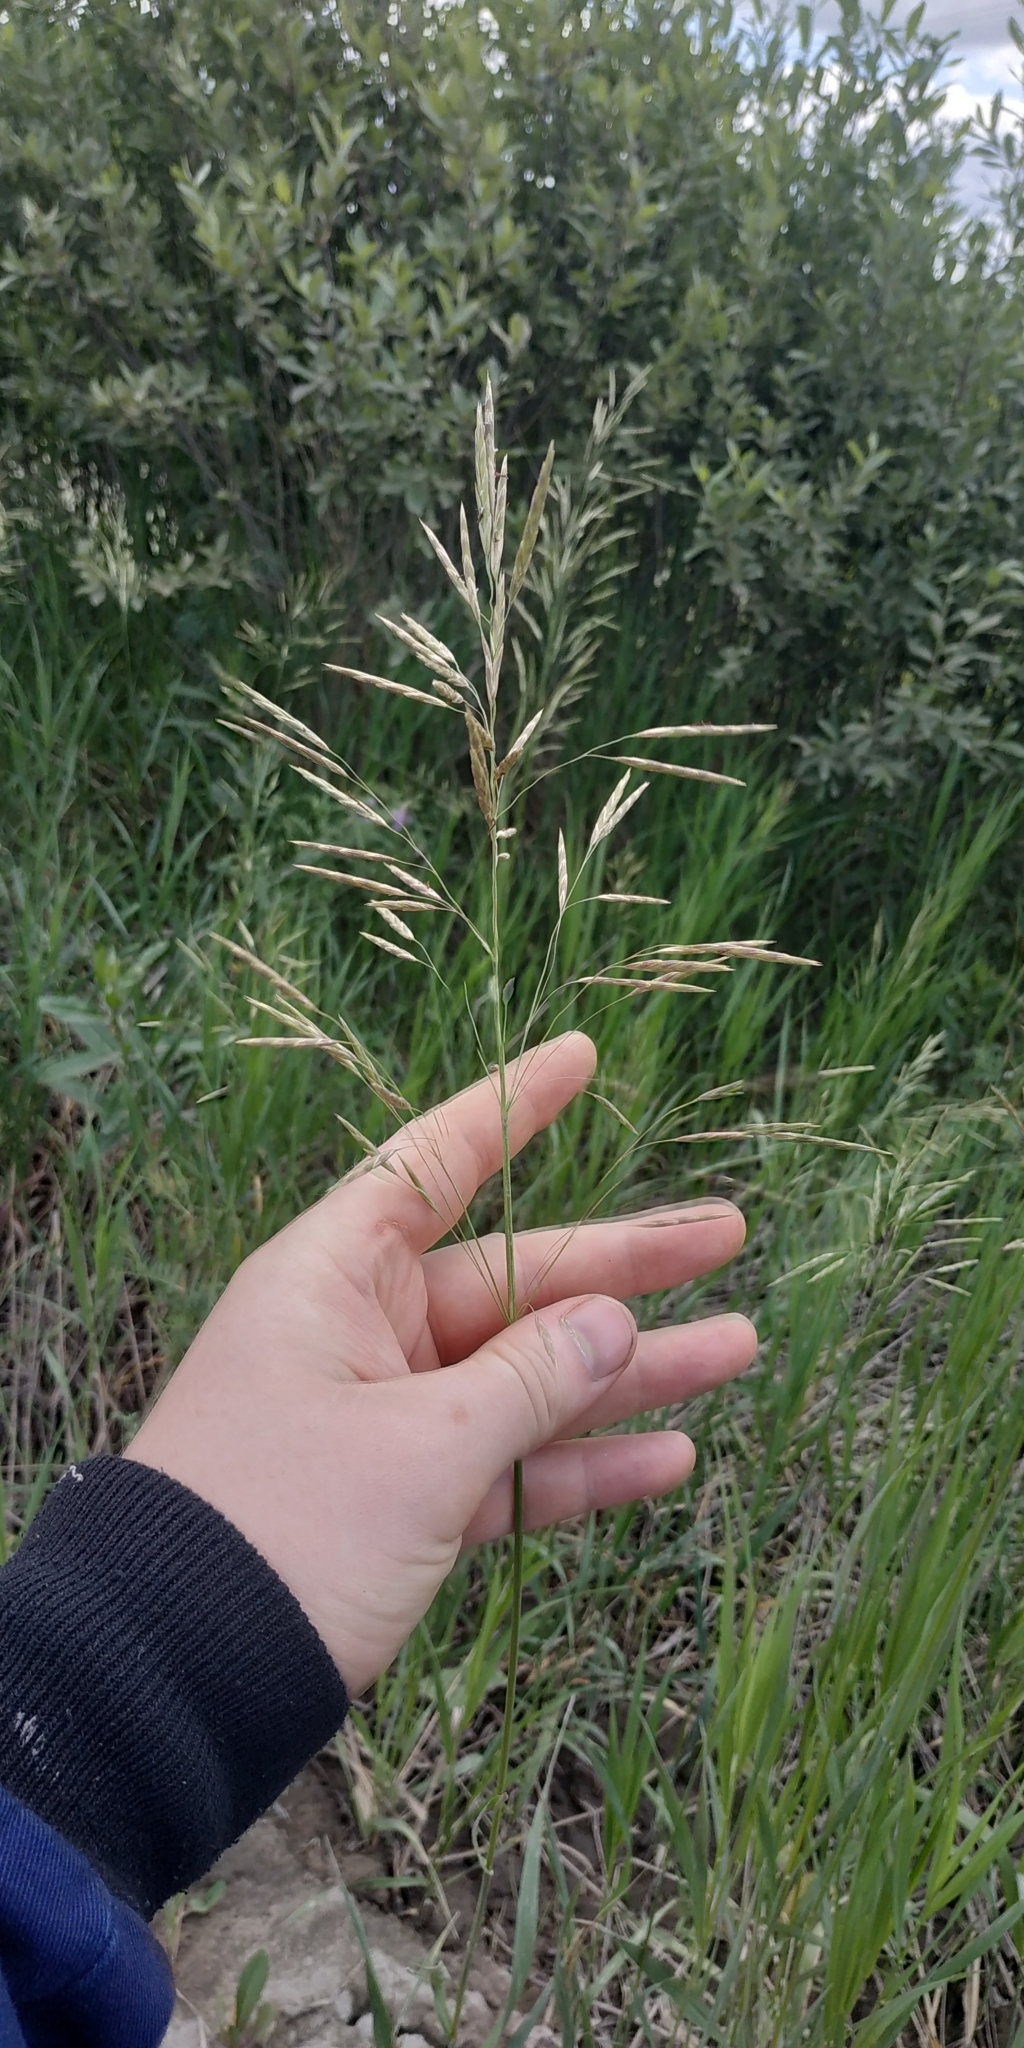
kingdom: Plantae
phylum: Tracheophyta
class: Liliopsida
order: Poales
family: Poaceae
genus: Bromus
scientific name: Bromus inermis
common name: Smooth brome
